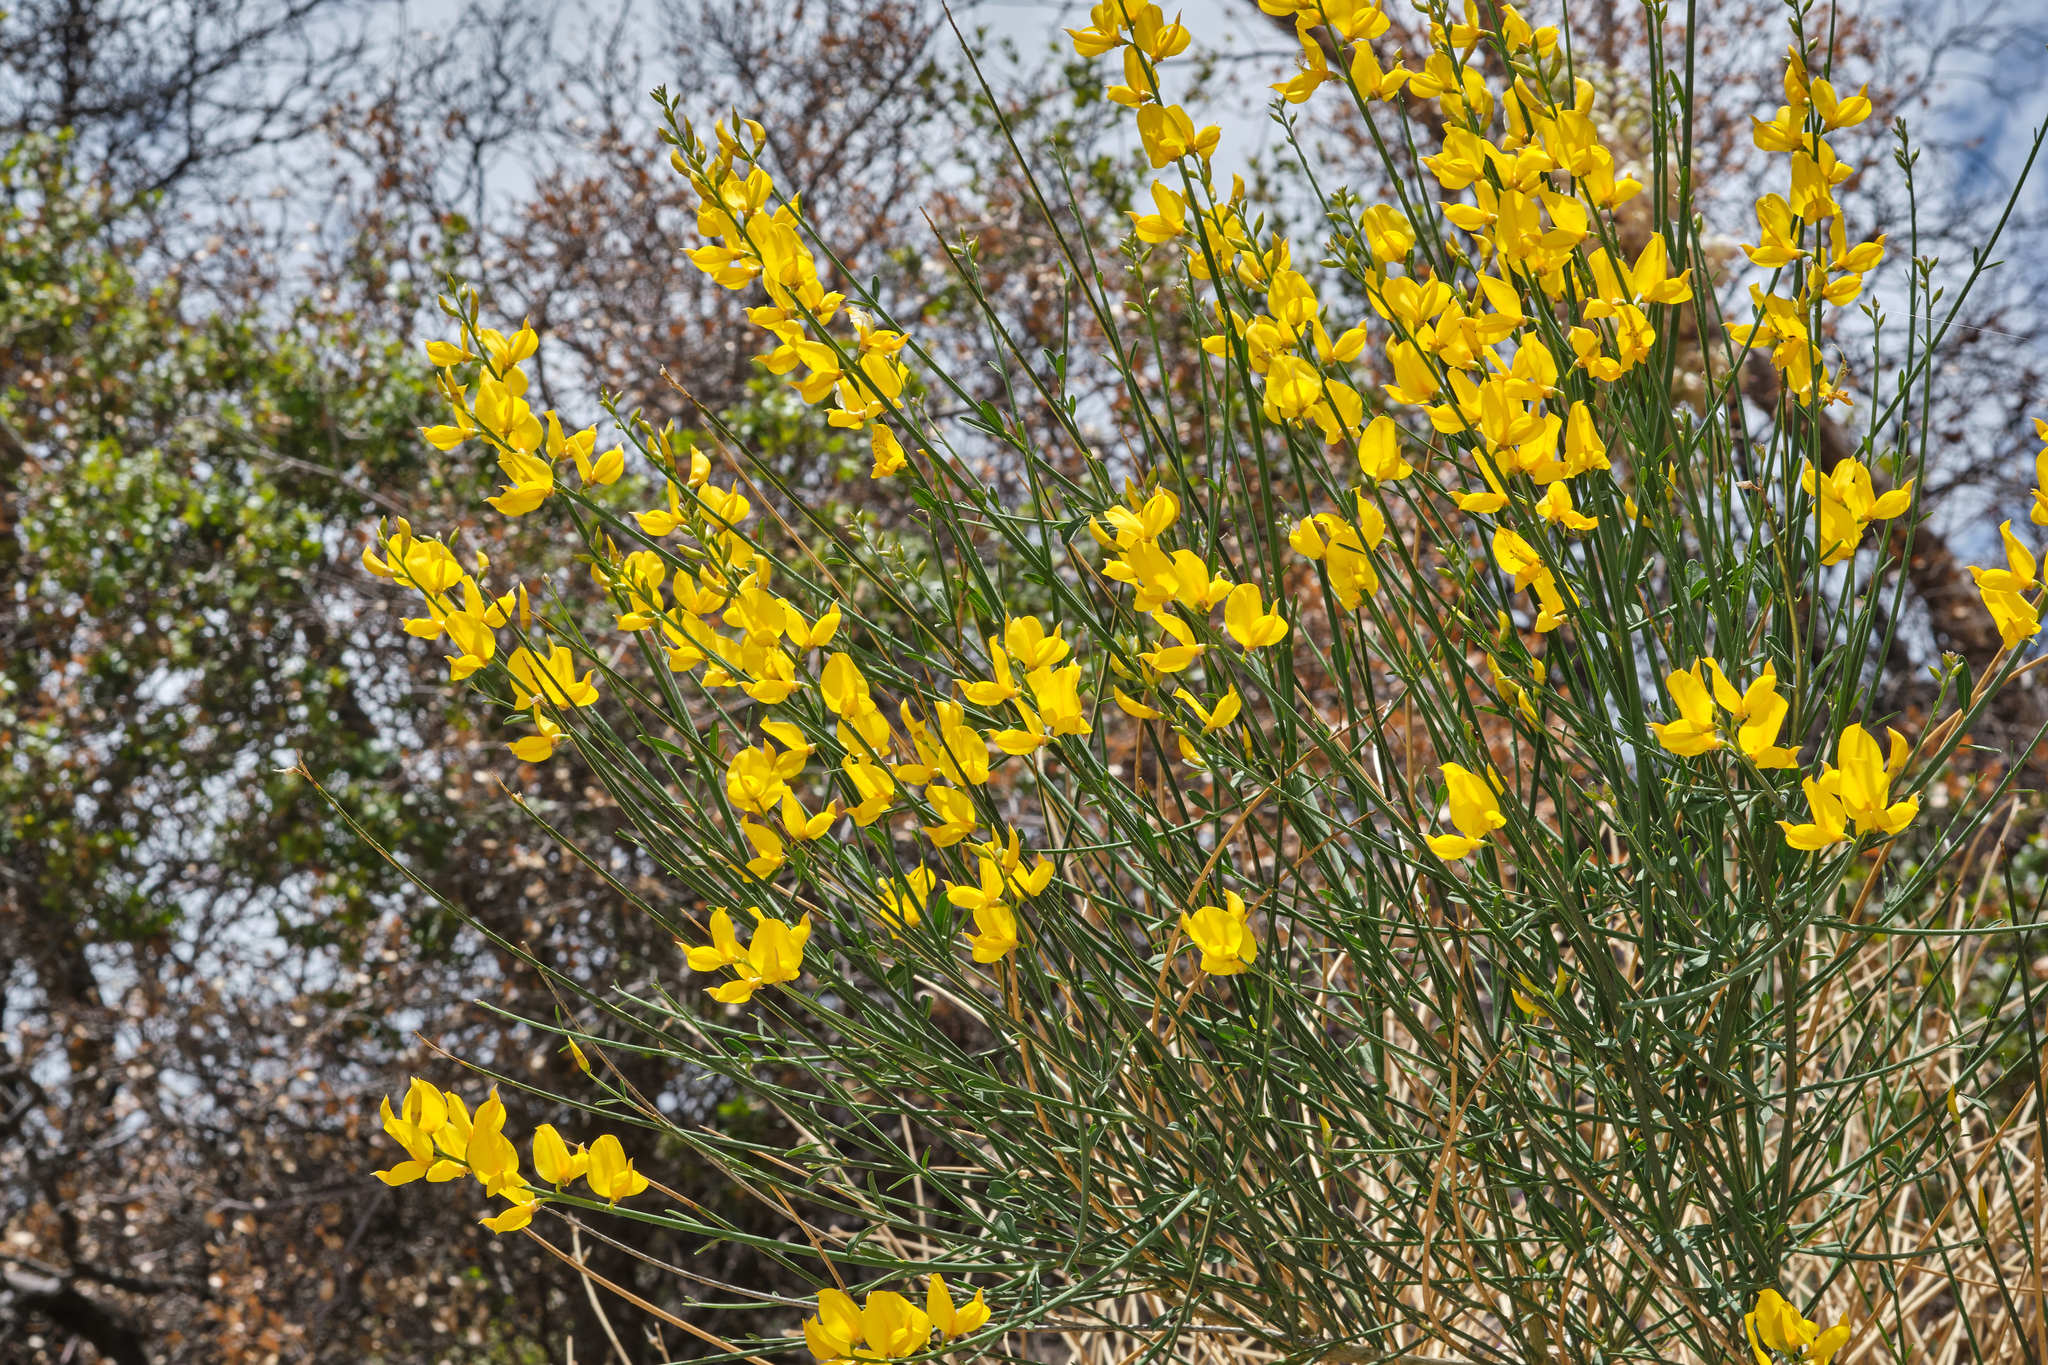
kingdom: Plantae
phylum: Tracheophyta
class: Magnoliopsida
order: Fabales
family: Fabaceae
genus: Spartium
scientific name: Spartium junceum
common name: Spanish broom
